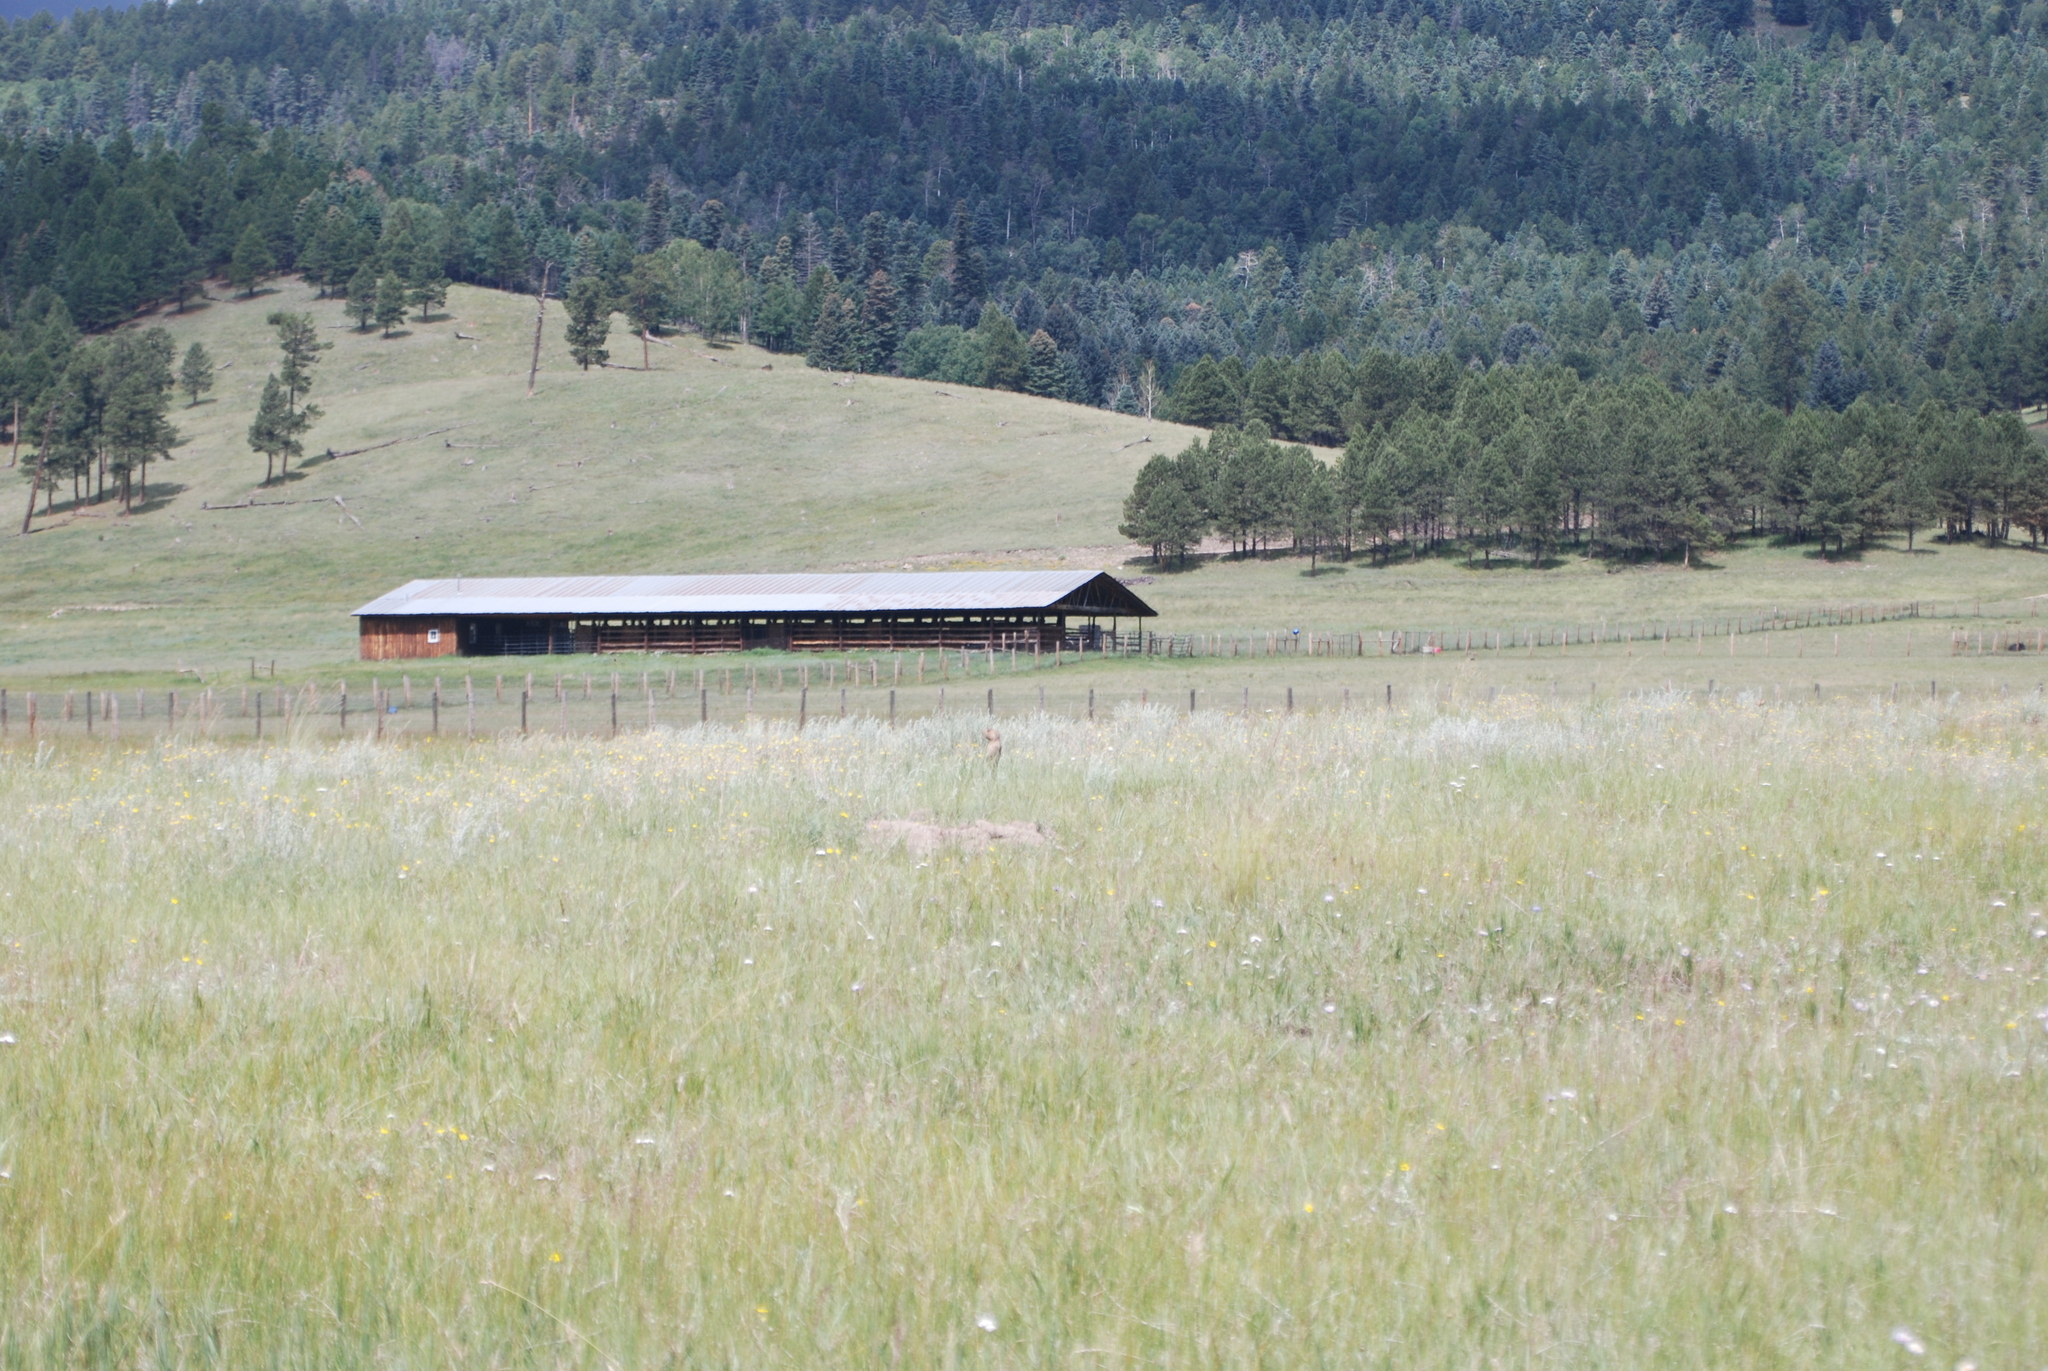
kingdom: Animalia
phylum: Chordata
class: Mammalia
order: Rodentia
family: Sciuridae
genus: Cynomys
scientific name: Cynomys gunnisoni
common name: Gunnison's prairie dog
